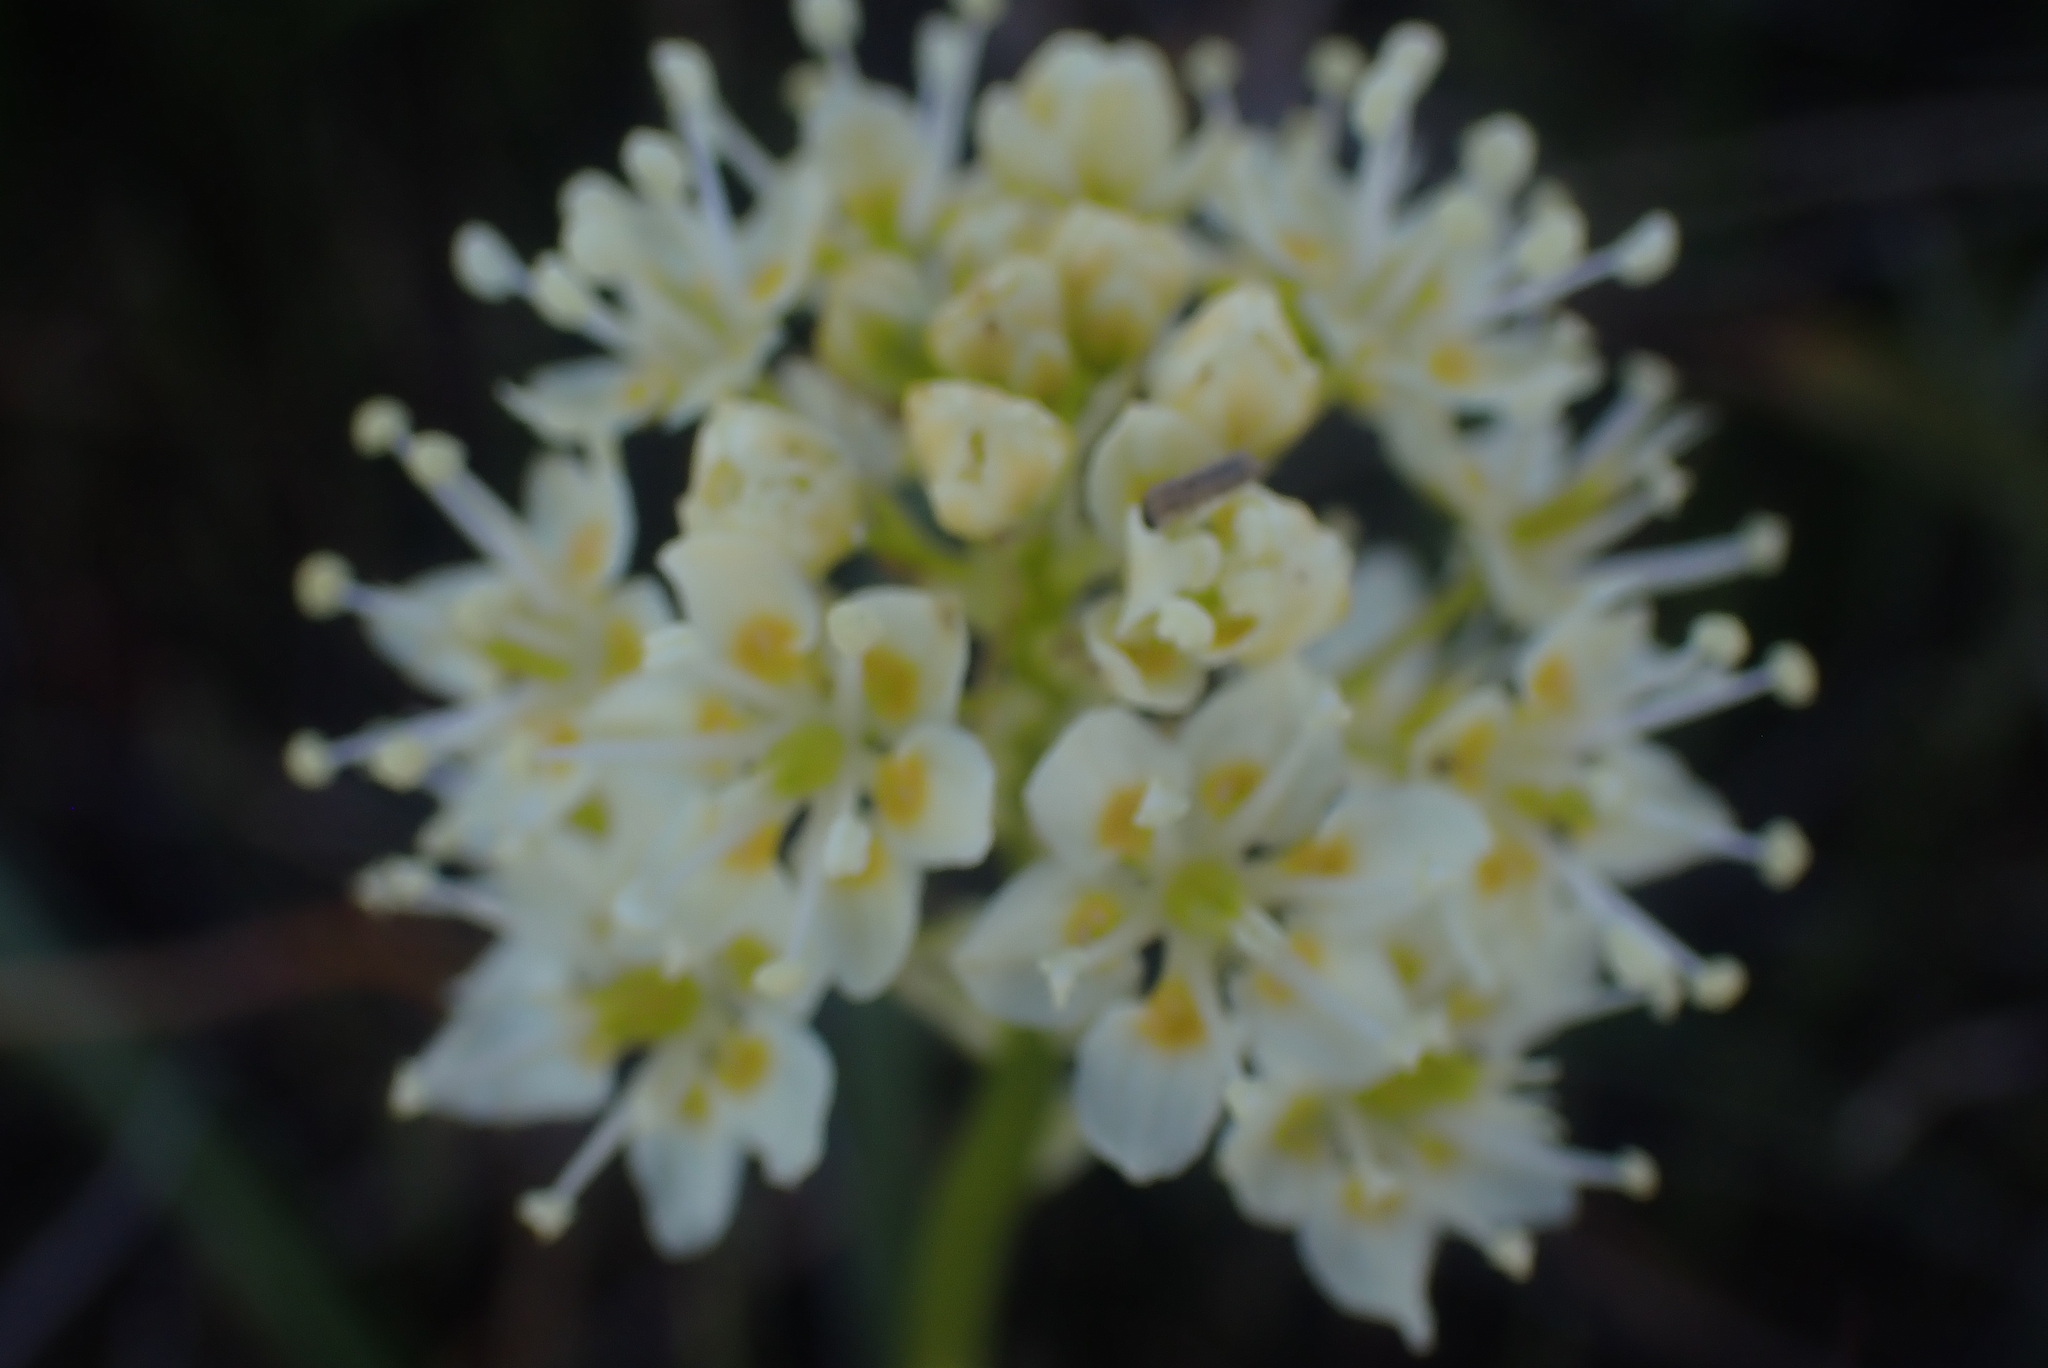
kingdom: Plantae
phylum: Tracheophyta
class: Liliopsida
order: Liliales
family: Melanthiaceae
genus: Toxicoscordion
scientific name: Toxicoscordion venenosum
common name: Meadow death camas
